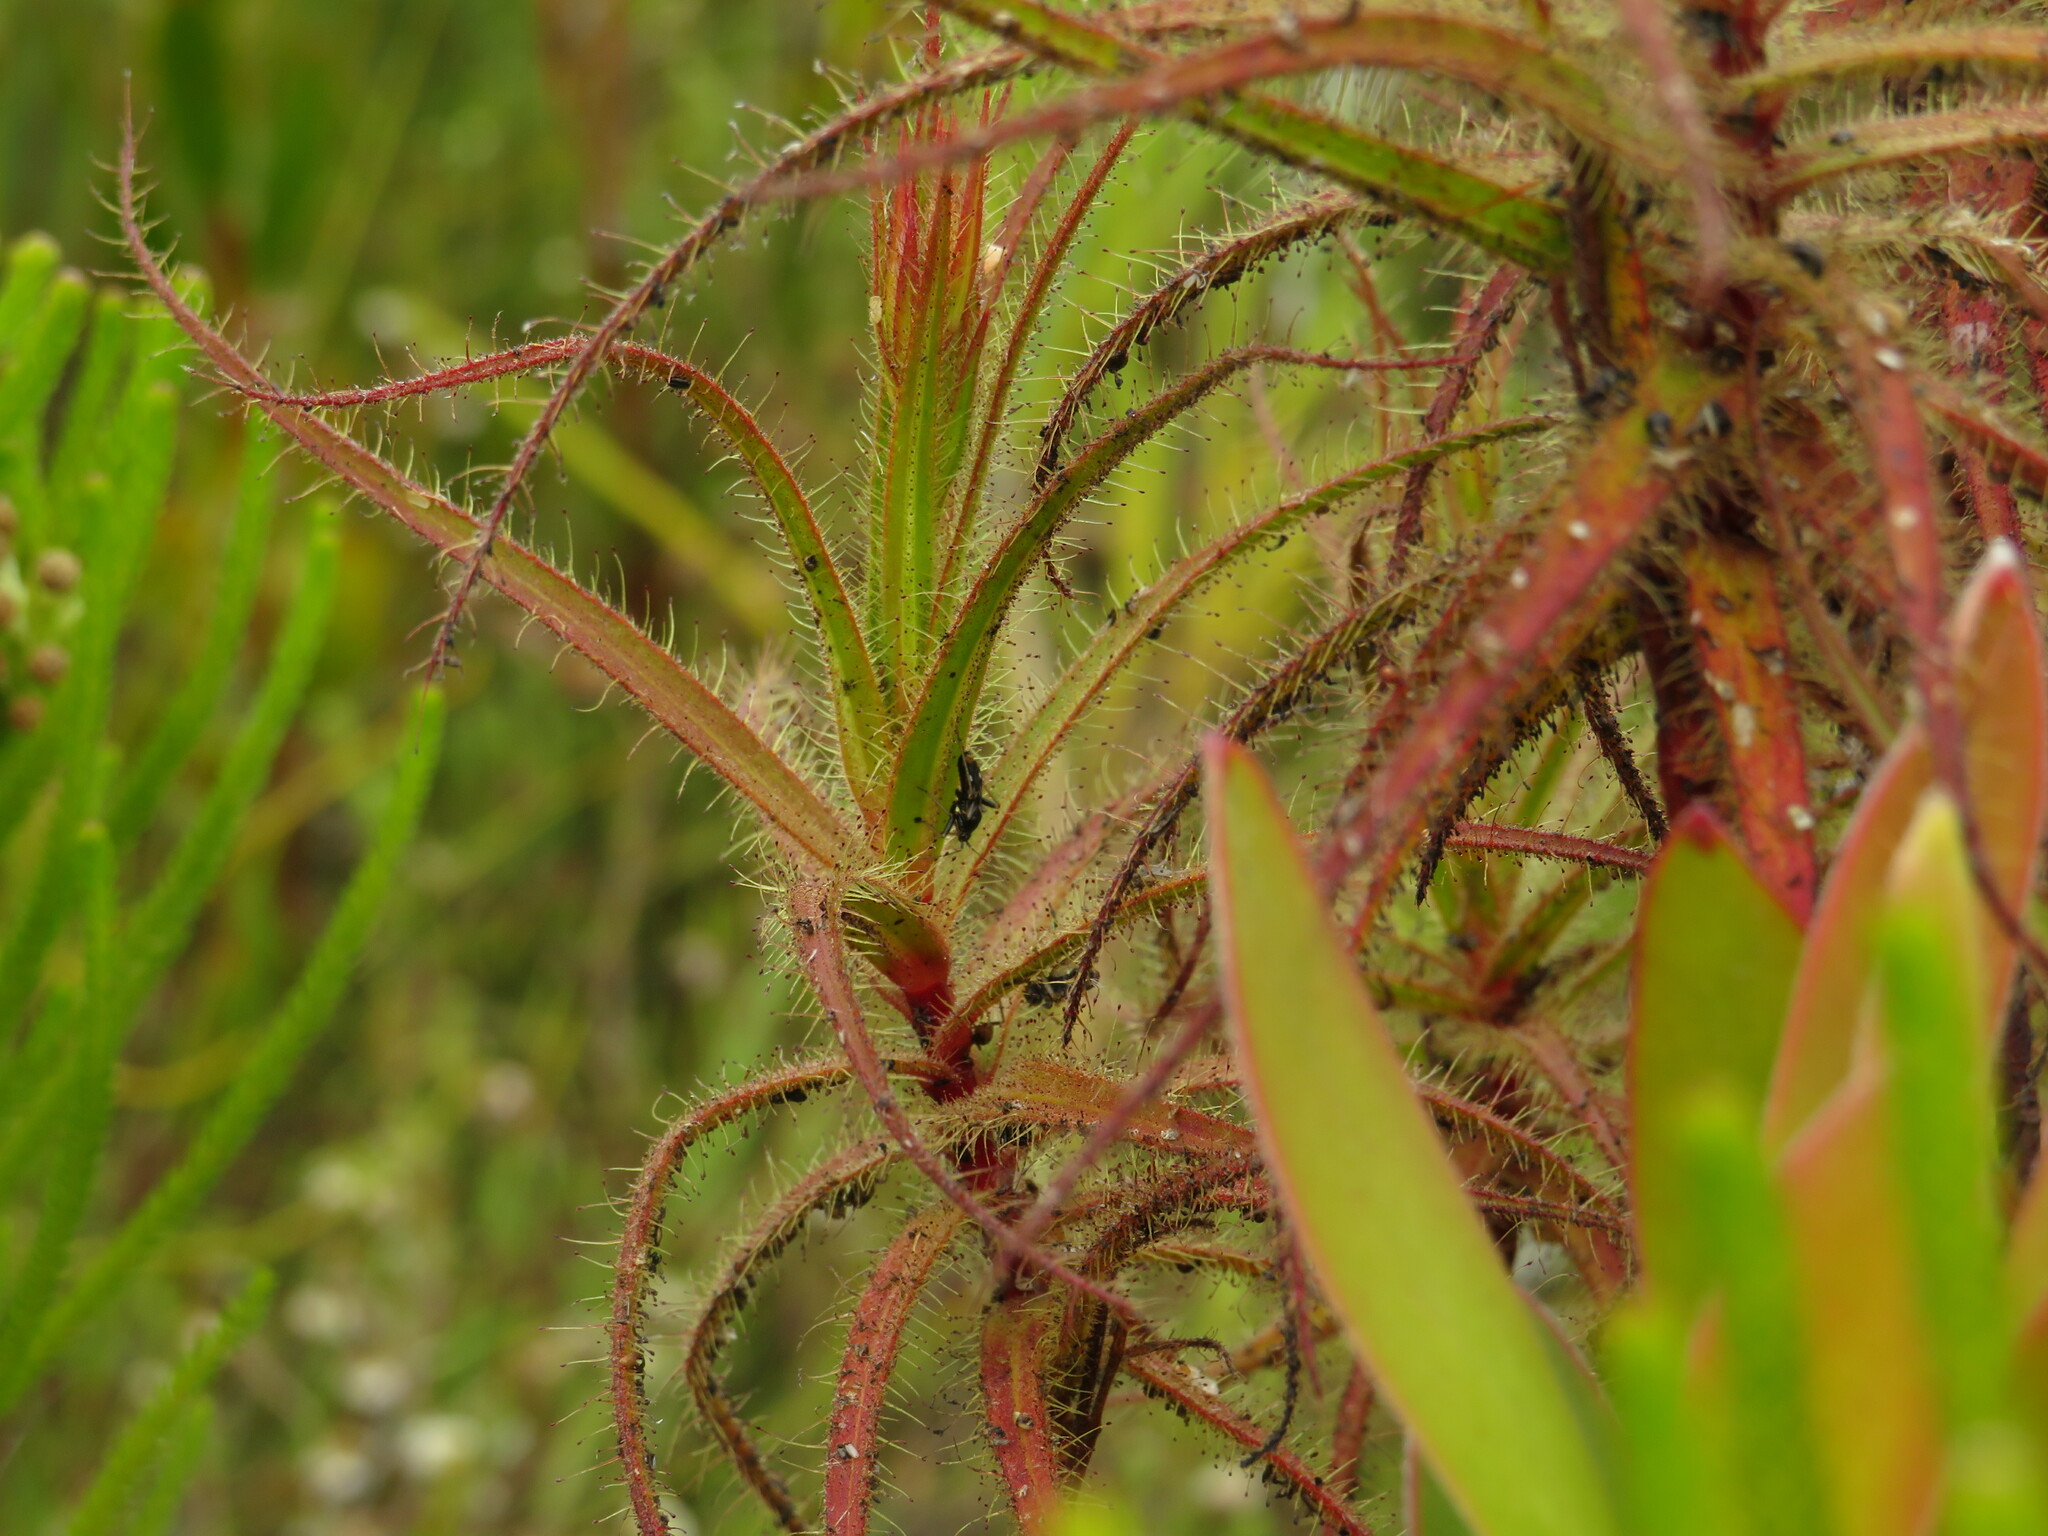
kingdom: Animalia
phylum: Arthropoda
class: Insecta
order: Hemiptera
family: Miridae
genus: Pameridea
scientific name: Pameridea roridulae
